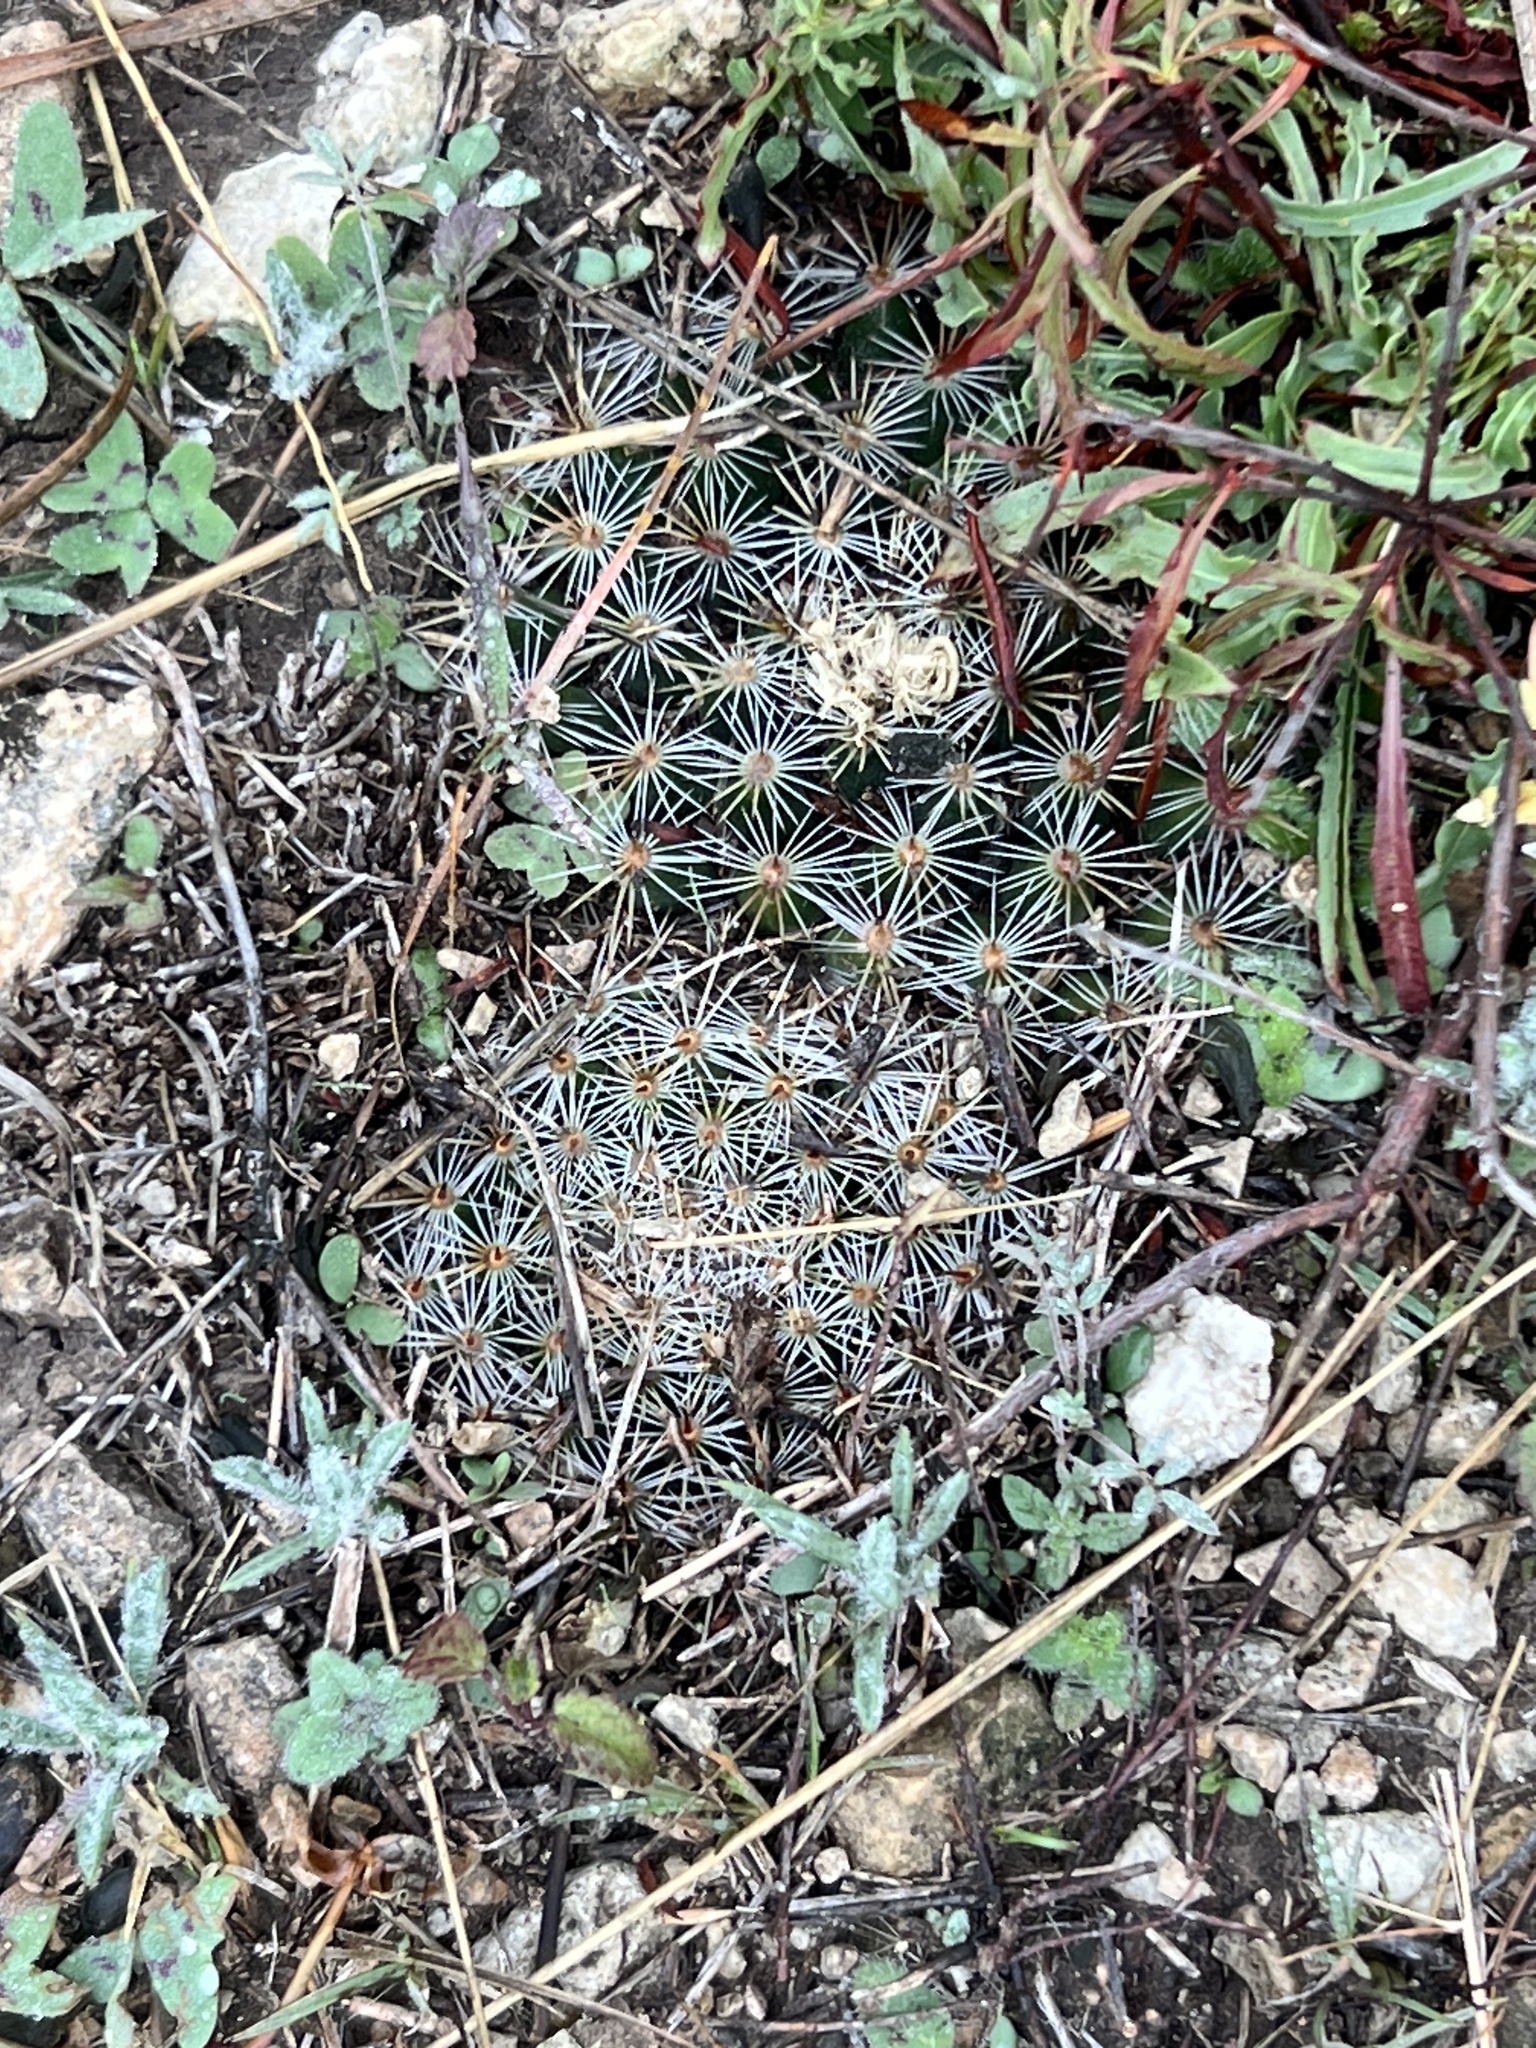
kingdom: Plantae
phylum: Tracheophyta
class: Magnoliopsida
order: Caryophyllales
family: Cactaceae
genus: Mammillaria
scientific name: Mammillaria heyderi
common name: Little nipple cactus
